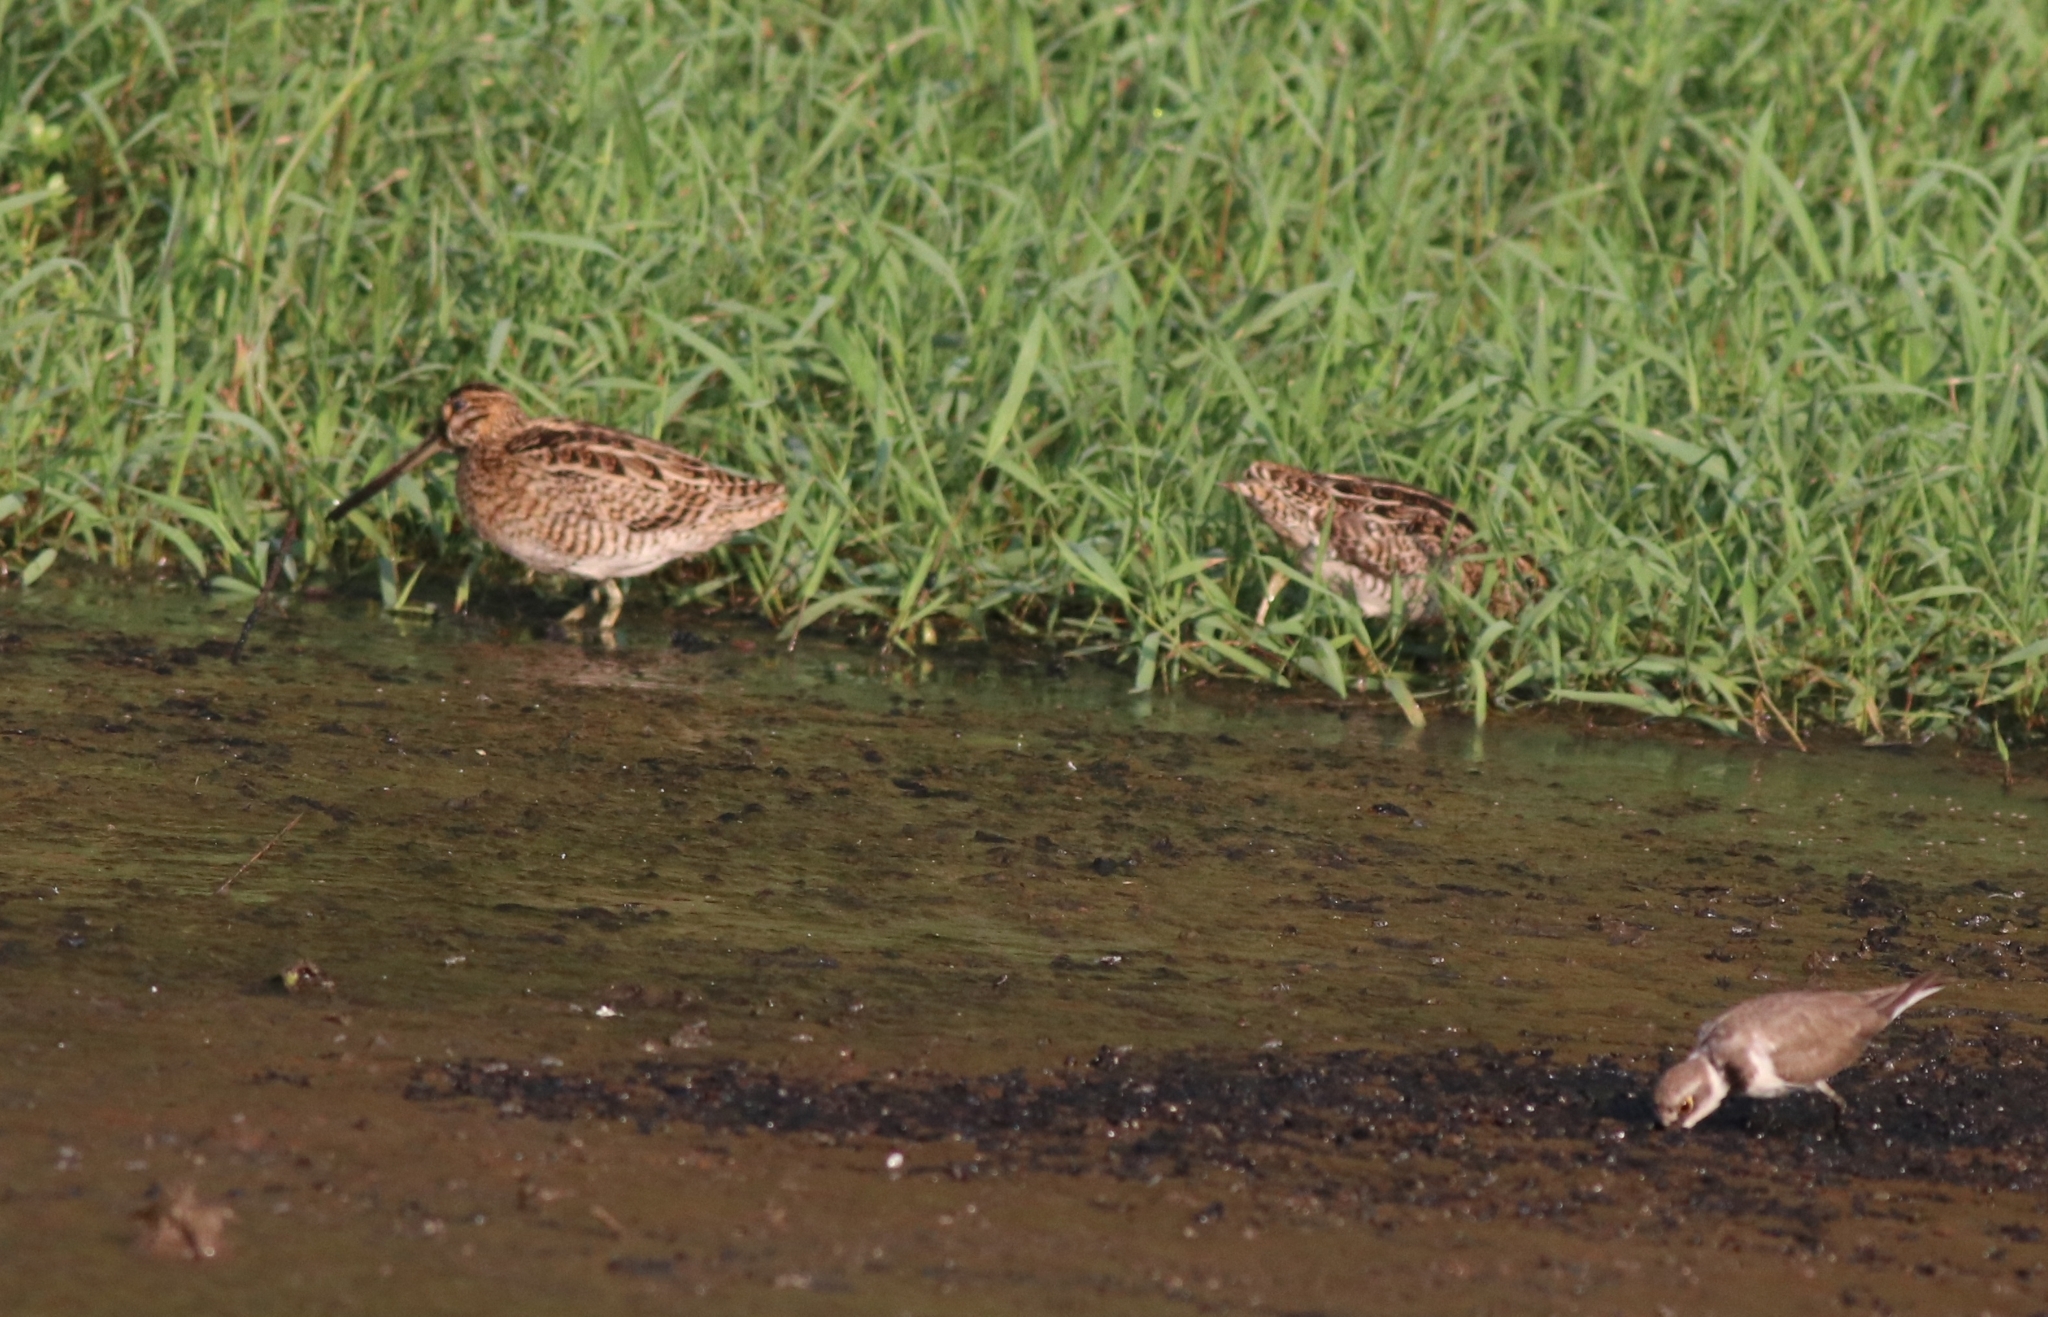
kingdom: Animalia
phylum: Chordata
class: Aves
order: Charadriiformes
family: Scolopacidae
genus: Gallinago
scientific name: Gallinago stenura
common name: Pin-tailed snipe
